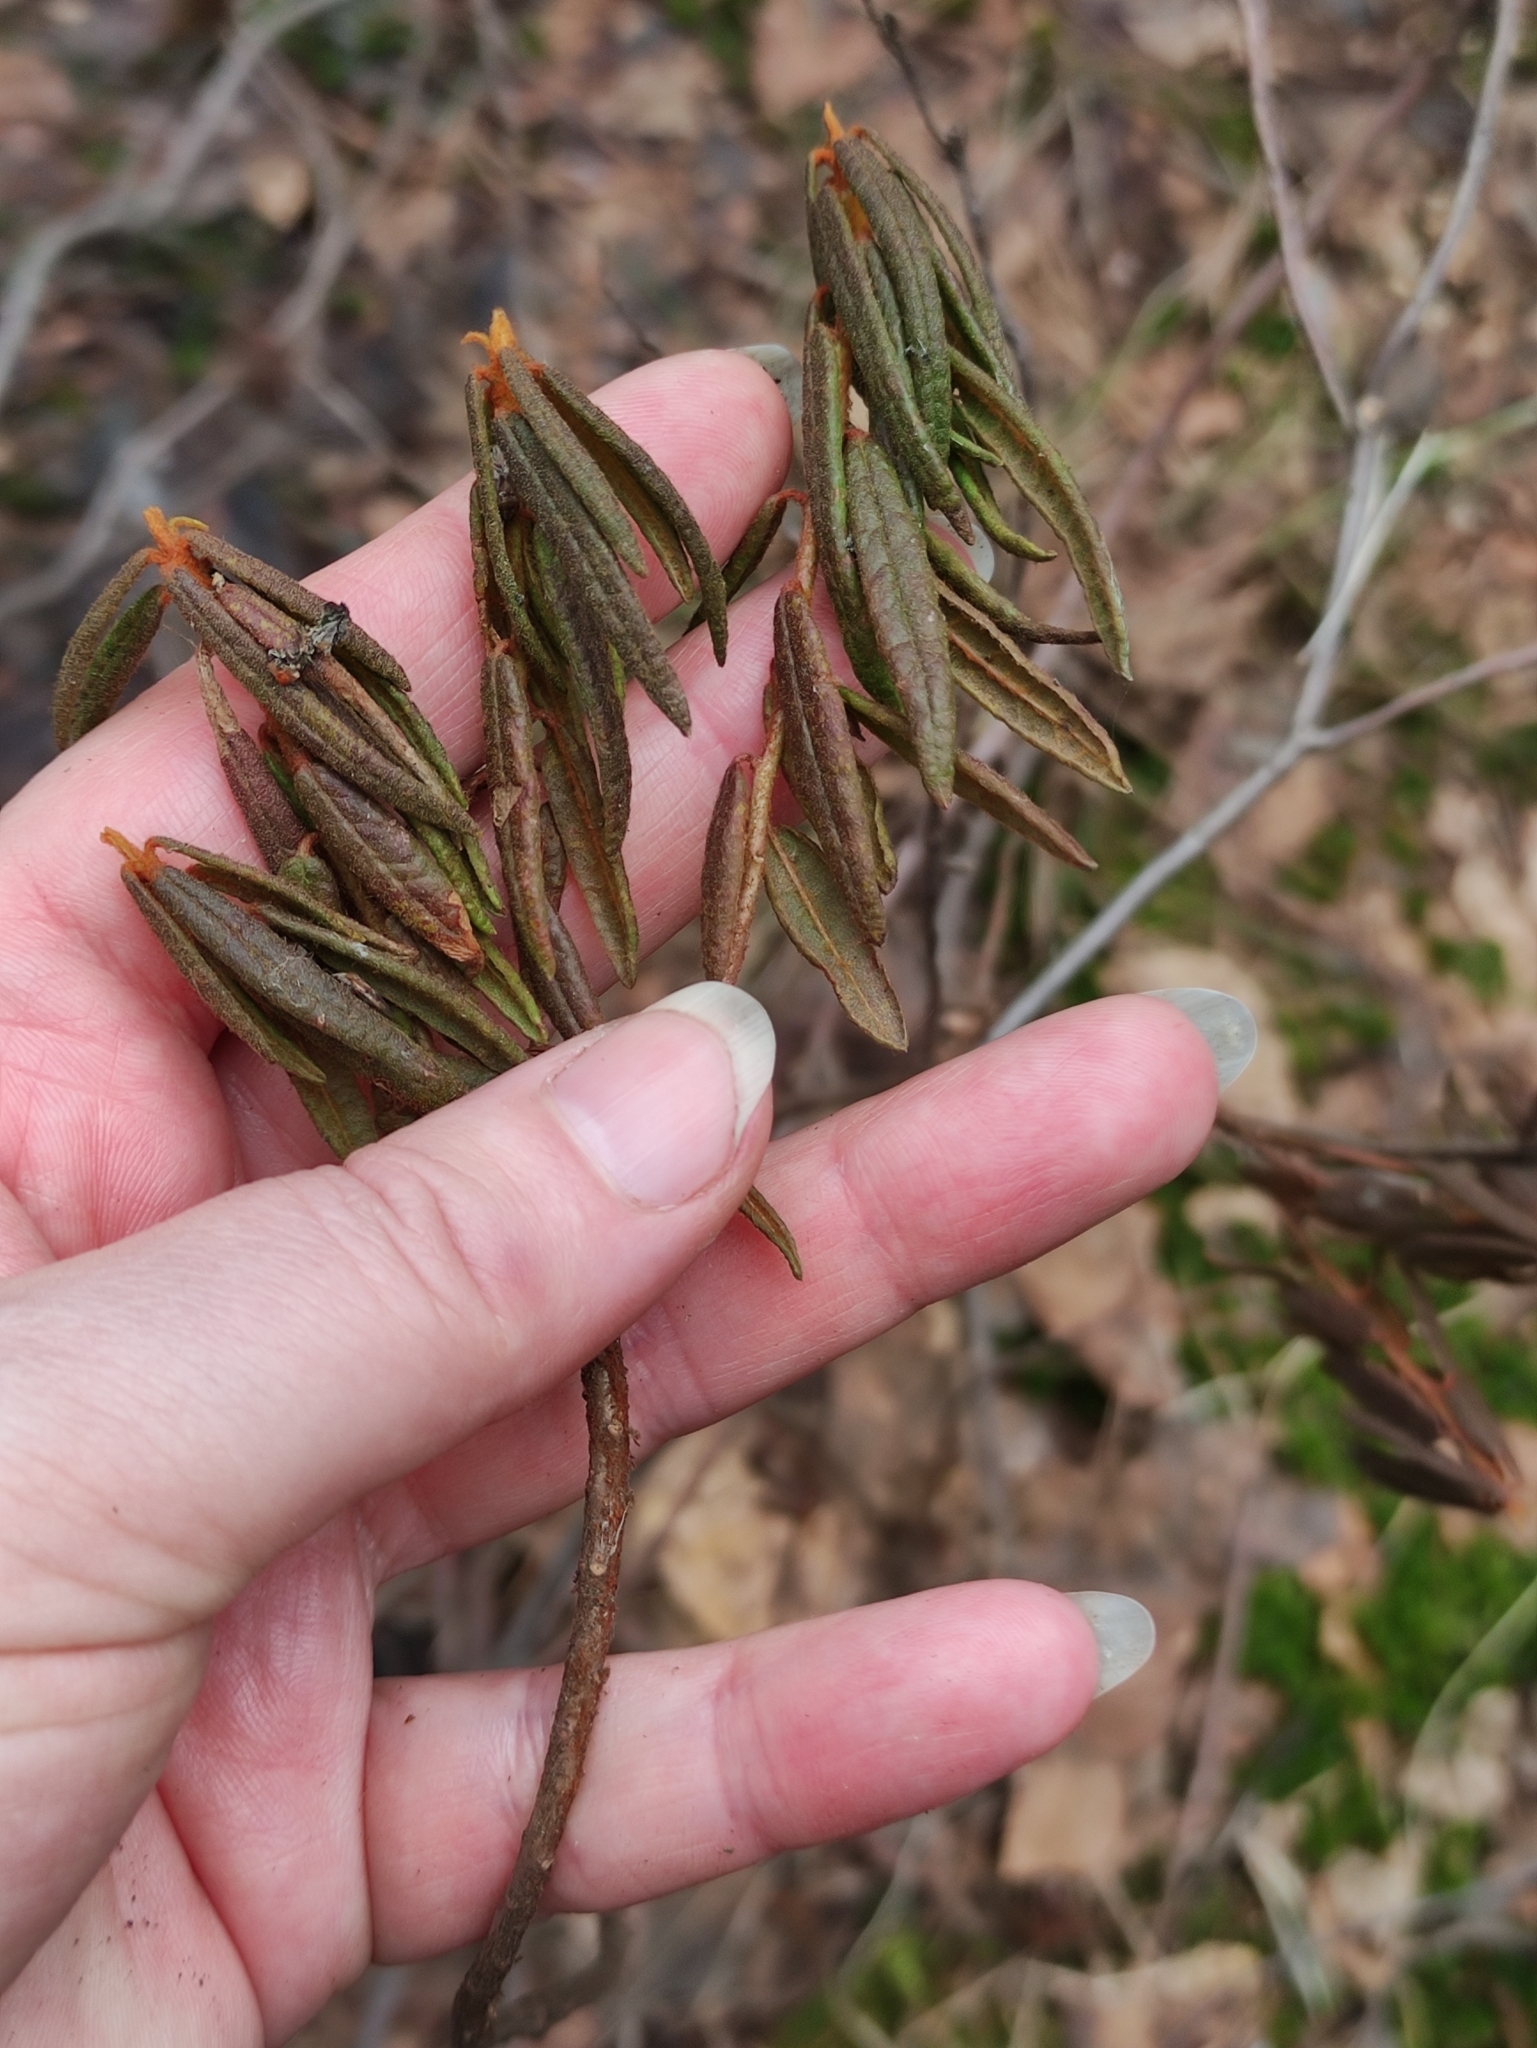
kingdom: Plantae
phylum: Tracheophyta
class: Magnoliopsida
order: Ericales
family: Ericaceae
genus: Rhododendron
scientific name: Rhododendron tomentosum
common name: Marsh labrador tea
